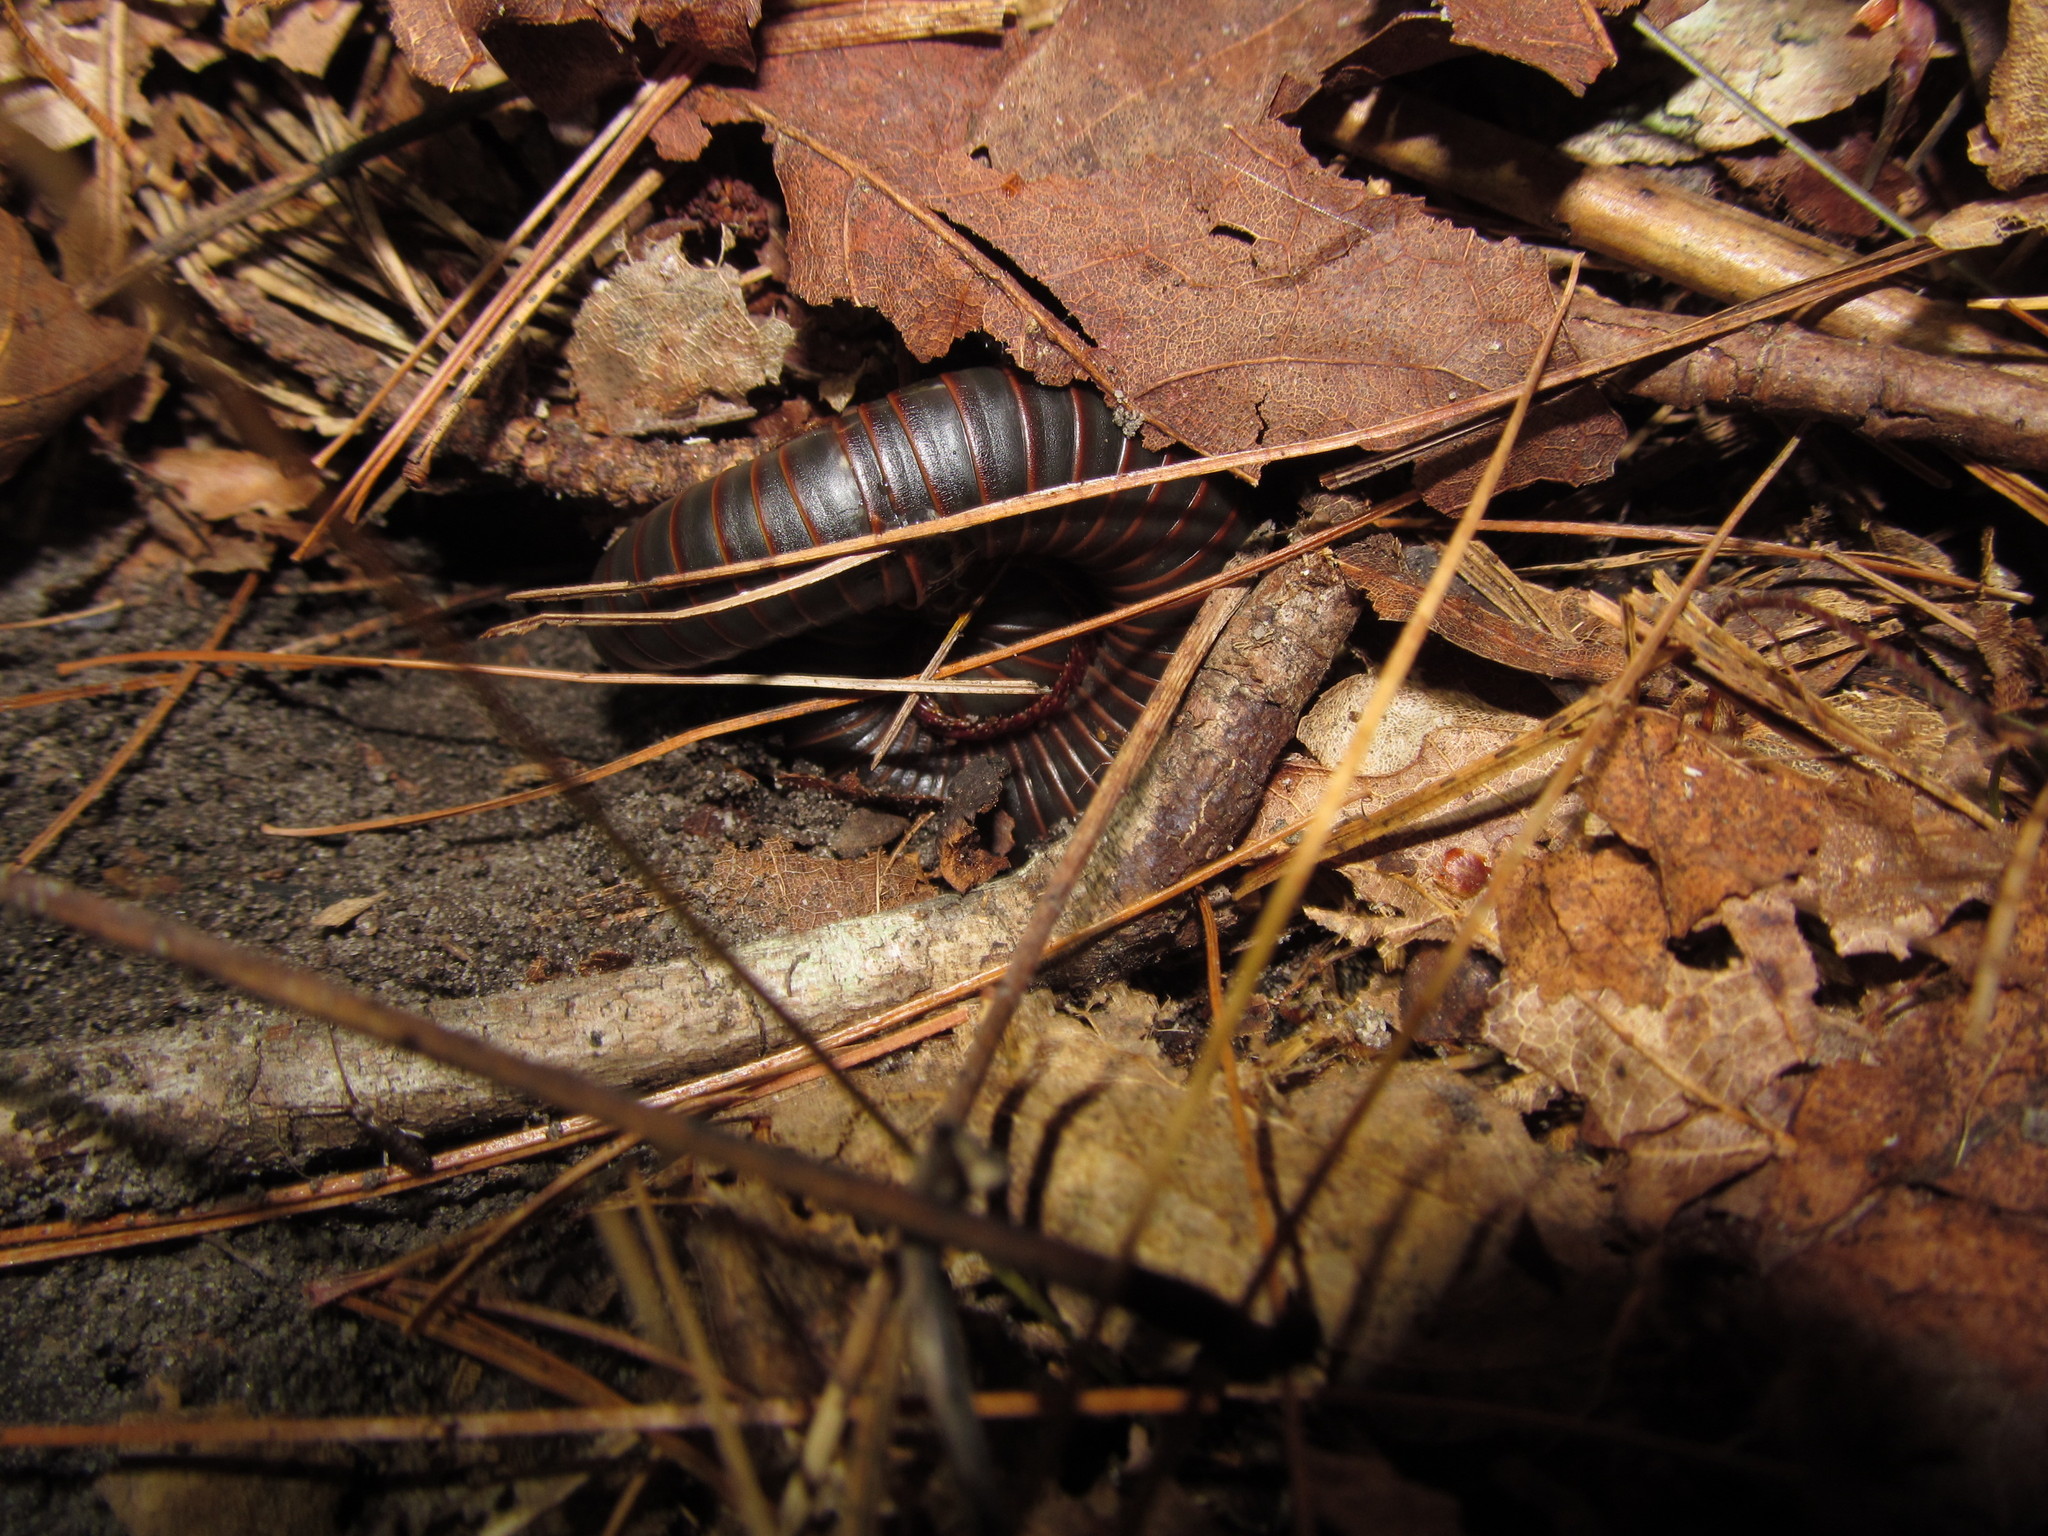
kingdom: Animalia
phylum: Arthropoda
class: Diplopoda
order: Spirobolida
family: Spirobolidae
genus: Narceus
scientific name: Narceus
